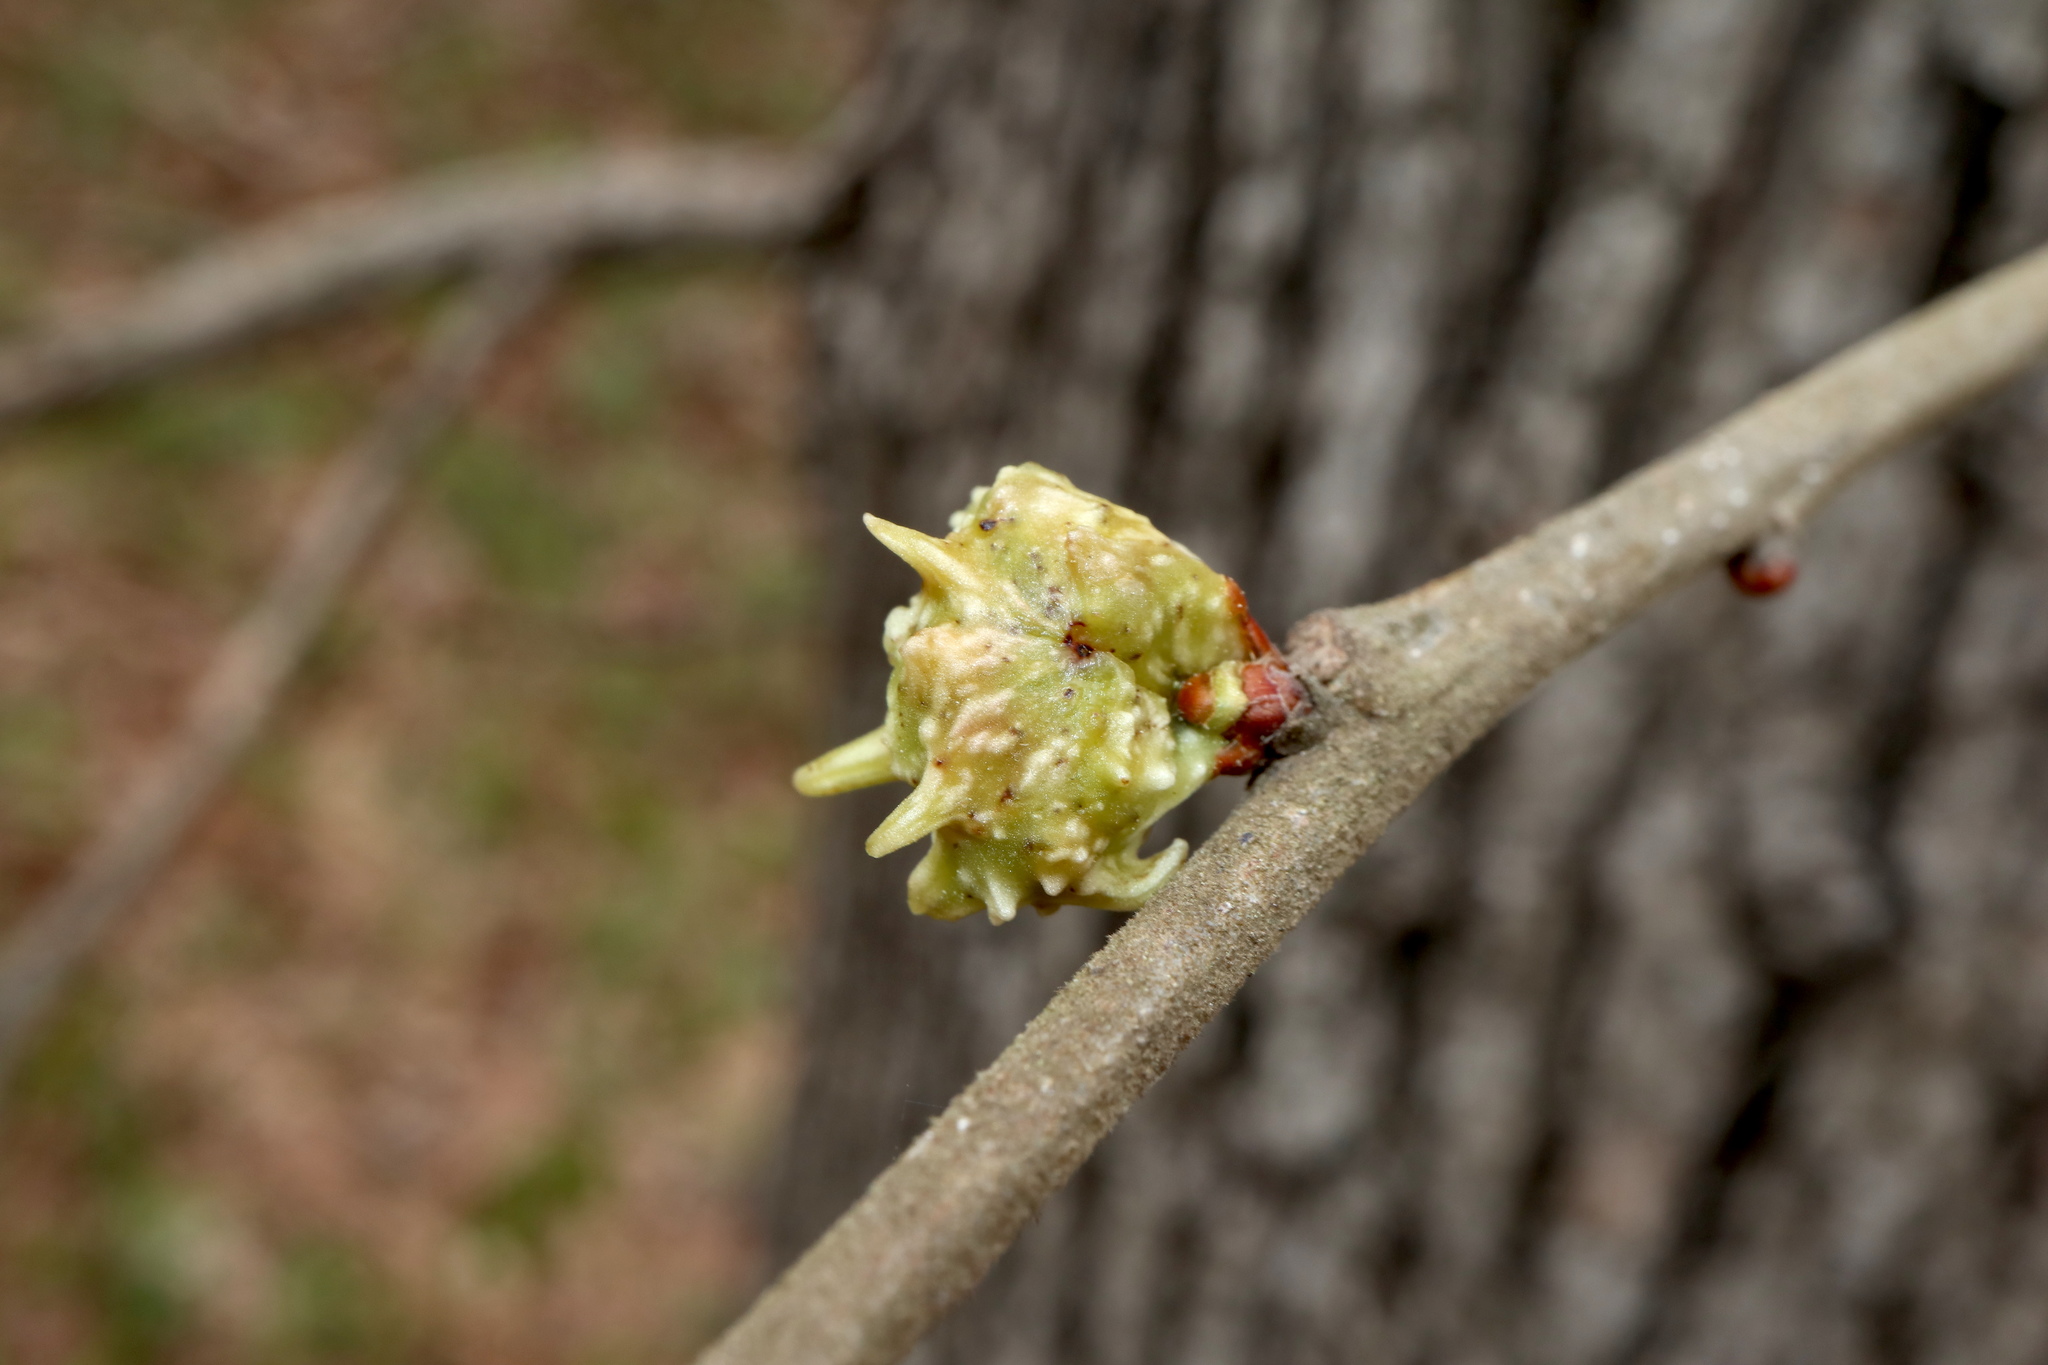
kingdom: Animalia
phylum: Arthropoda
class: Insecta
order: Hymenoptera
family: Cynipidae
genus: Andricus
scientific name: Andricus
